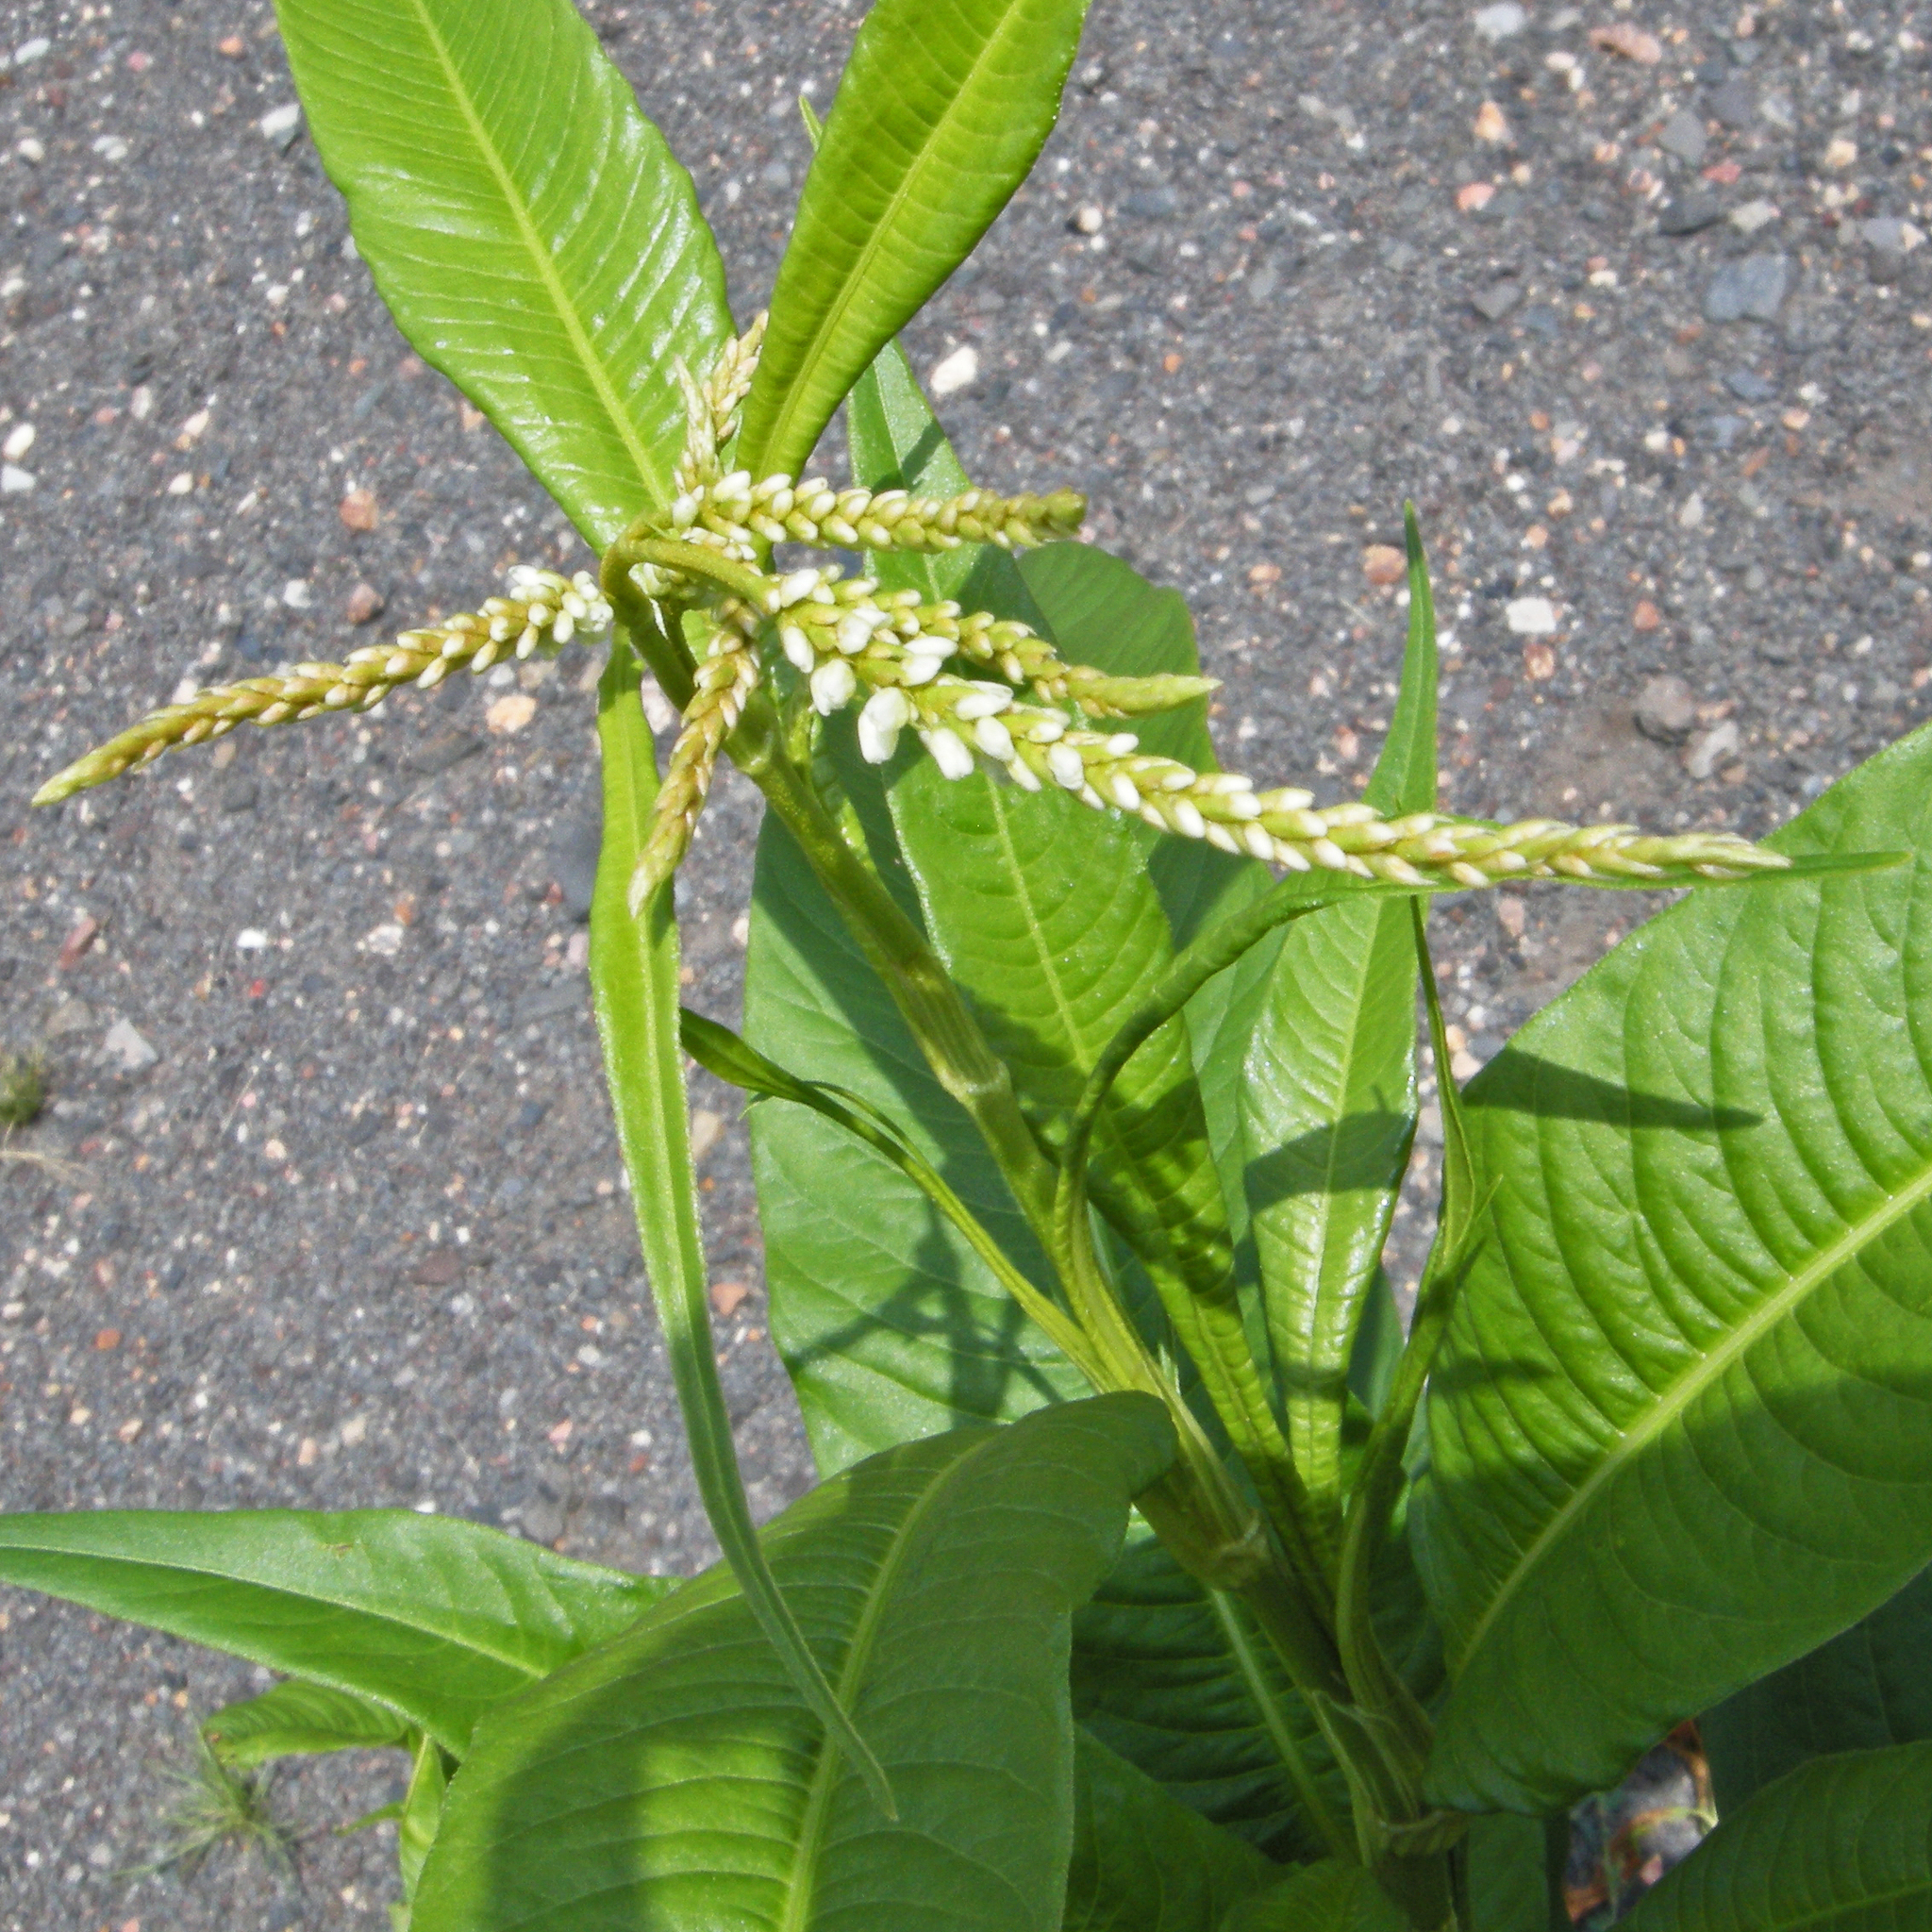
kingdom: Plantae
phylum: Tracheophyta
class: Magnoliopsida
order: Caryophyllales
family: Polygonaceae
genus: Persicaria
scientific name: Persicaria lapathifolia
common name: Curlytop knotweed
